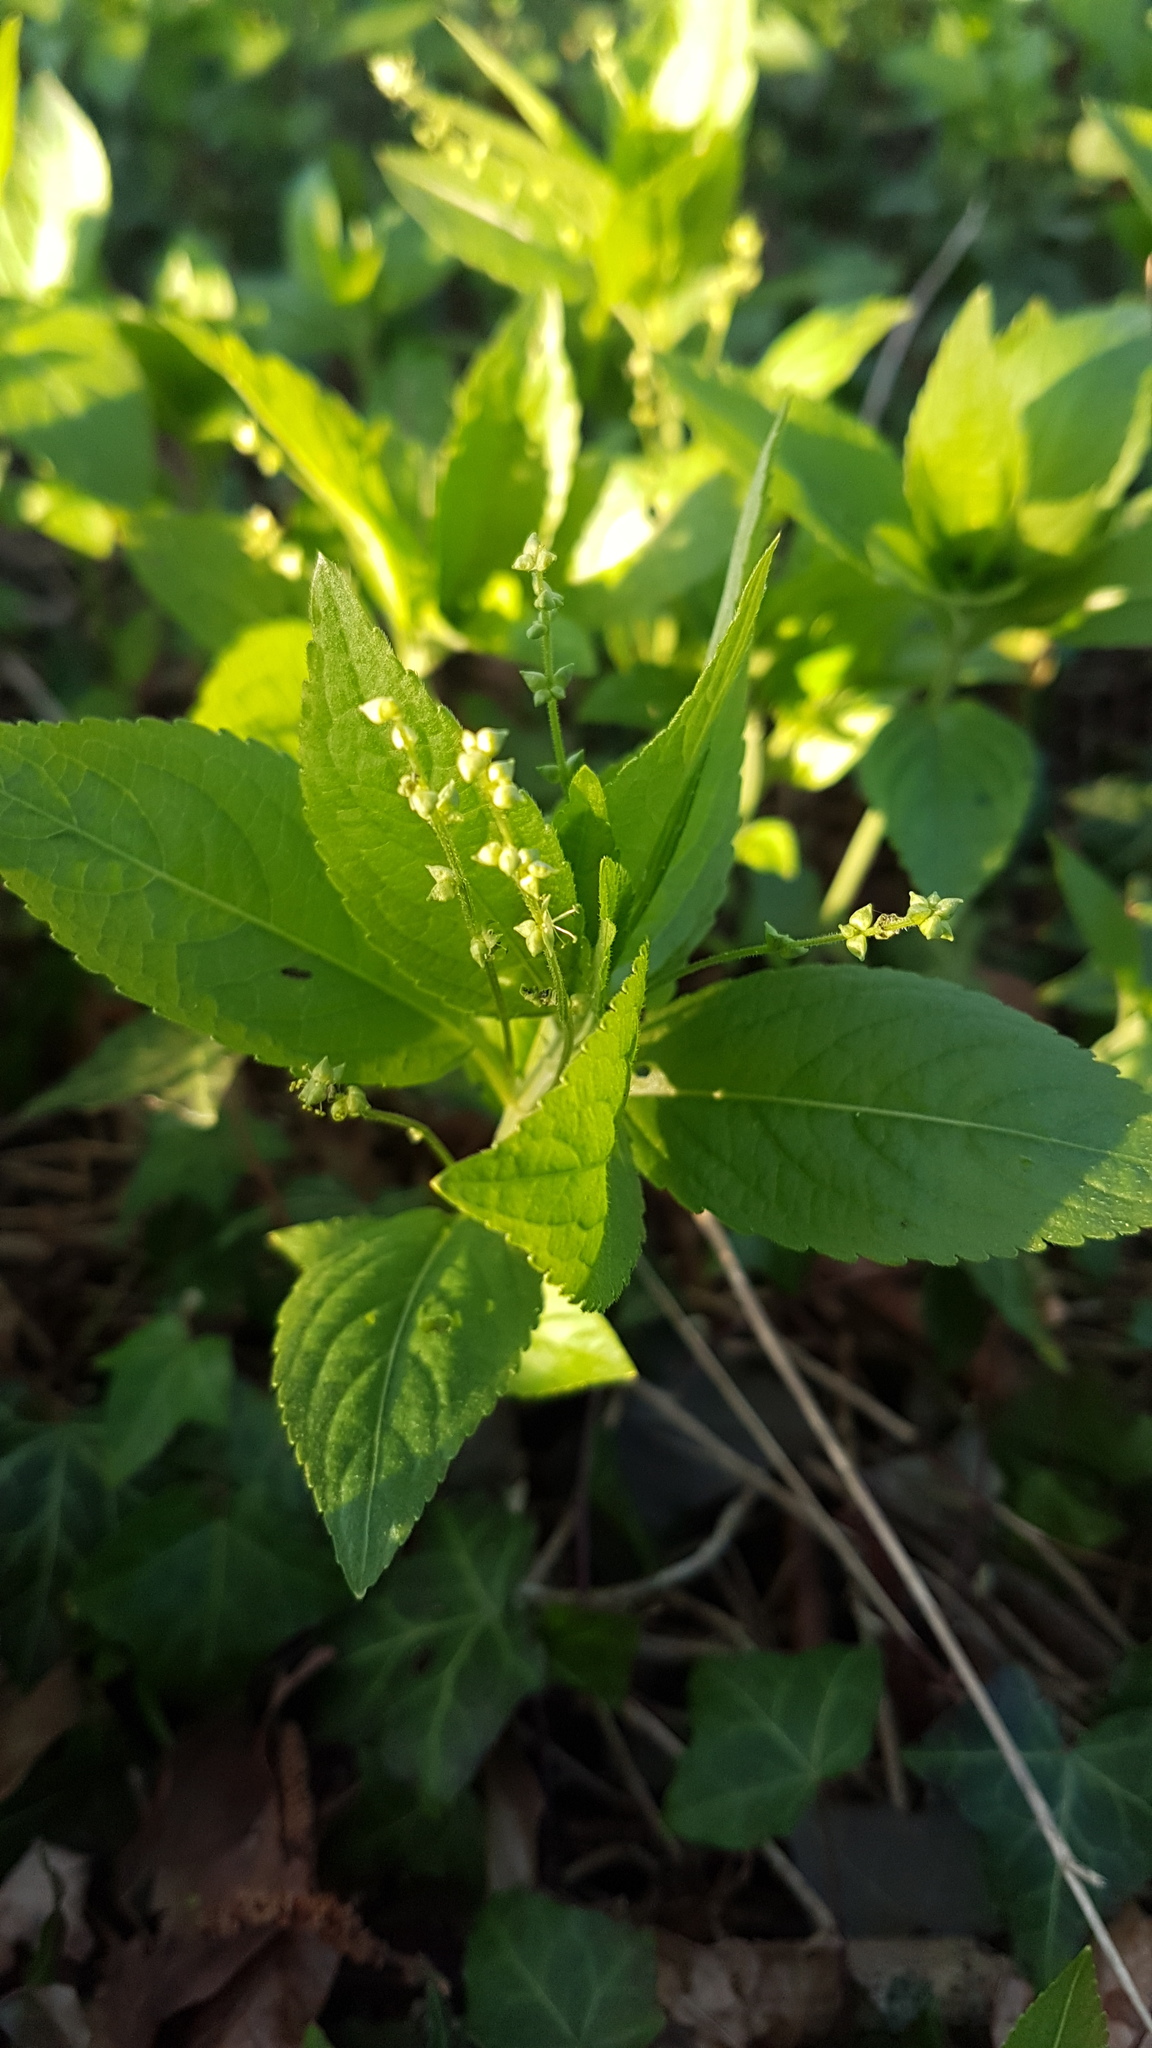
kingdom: Plantae
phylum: Tracheophyta
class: Magnoliopsida
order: Malpighiales
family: Euphorbiaceae
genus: Mercurialis
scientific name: Mercurialis perennis
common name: Dog mercury
